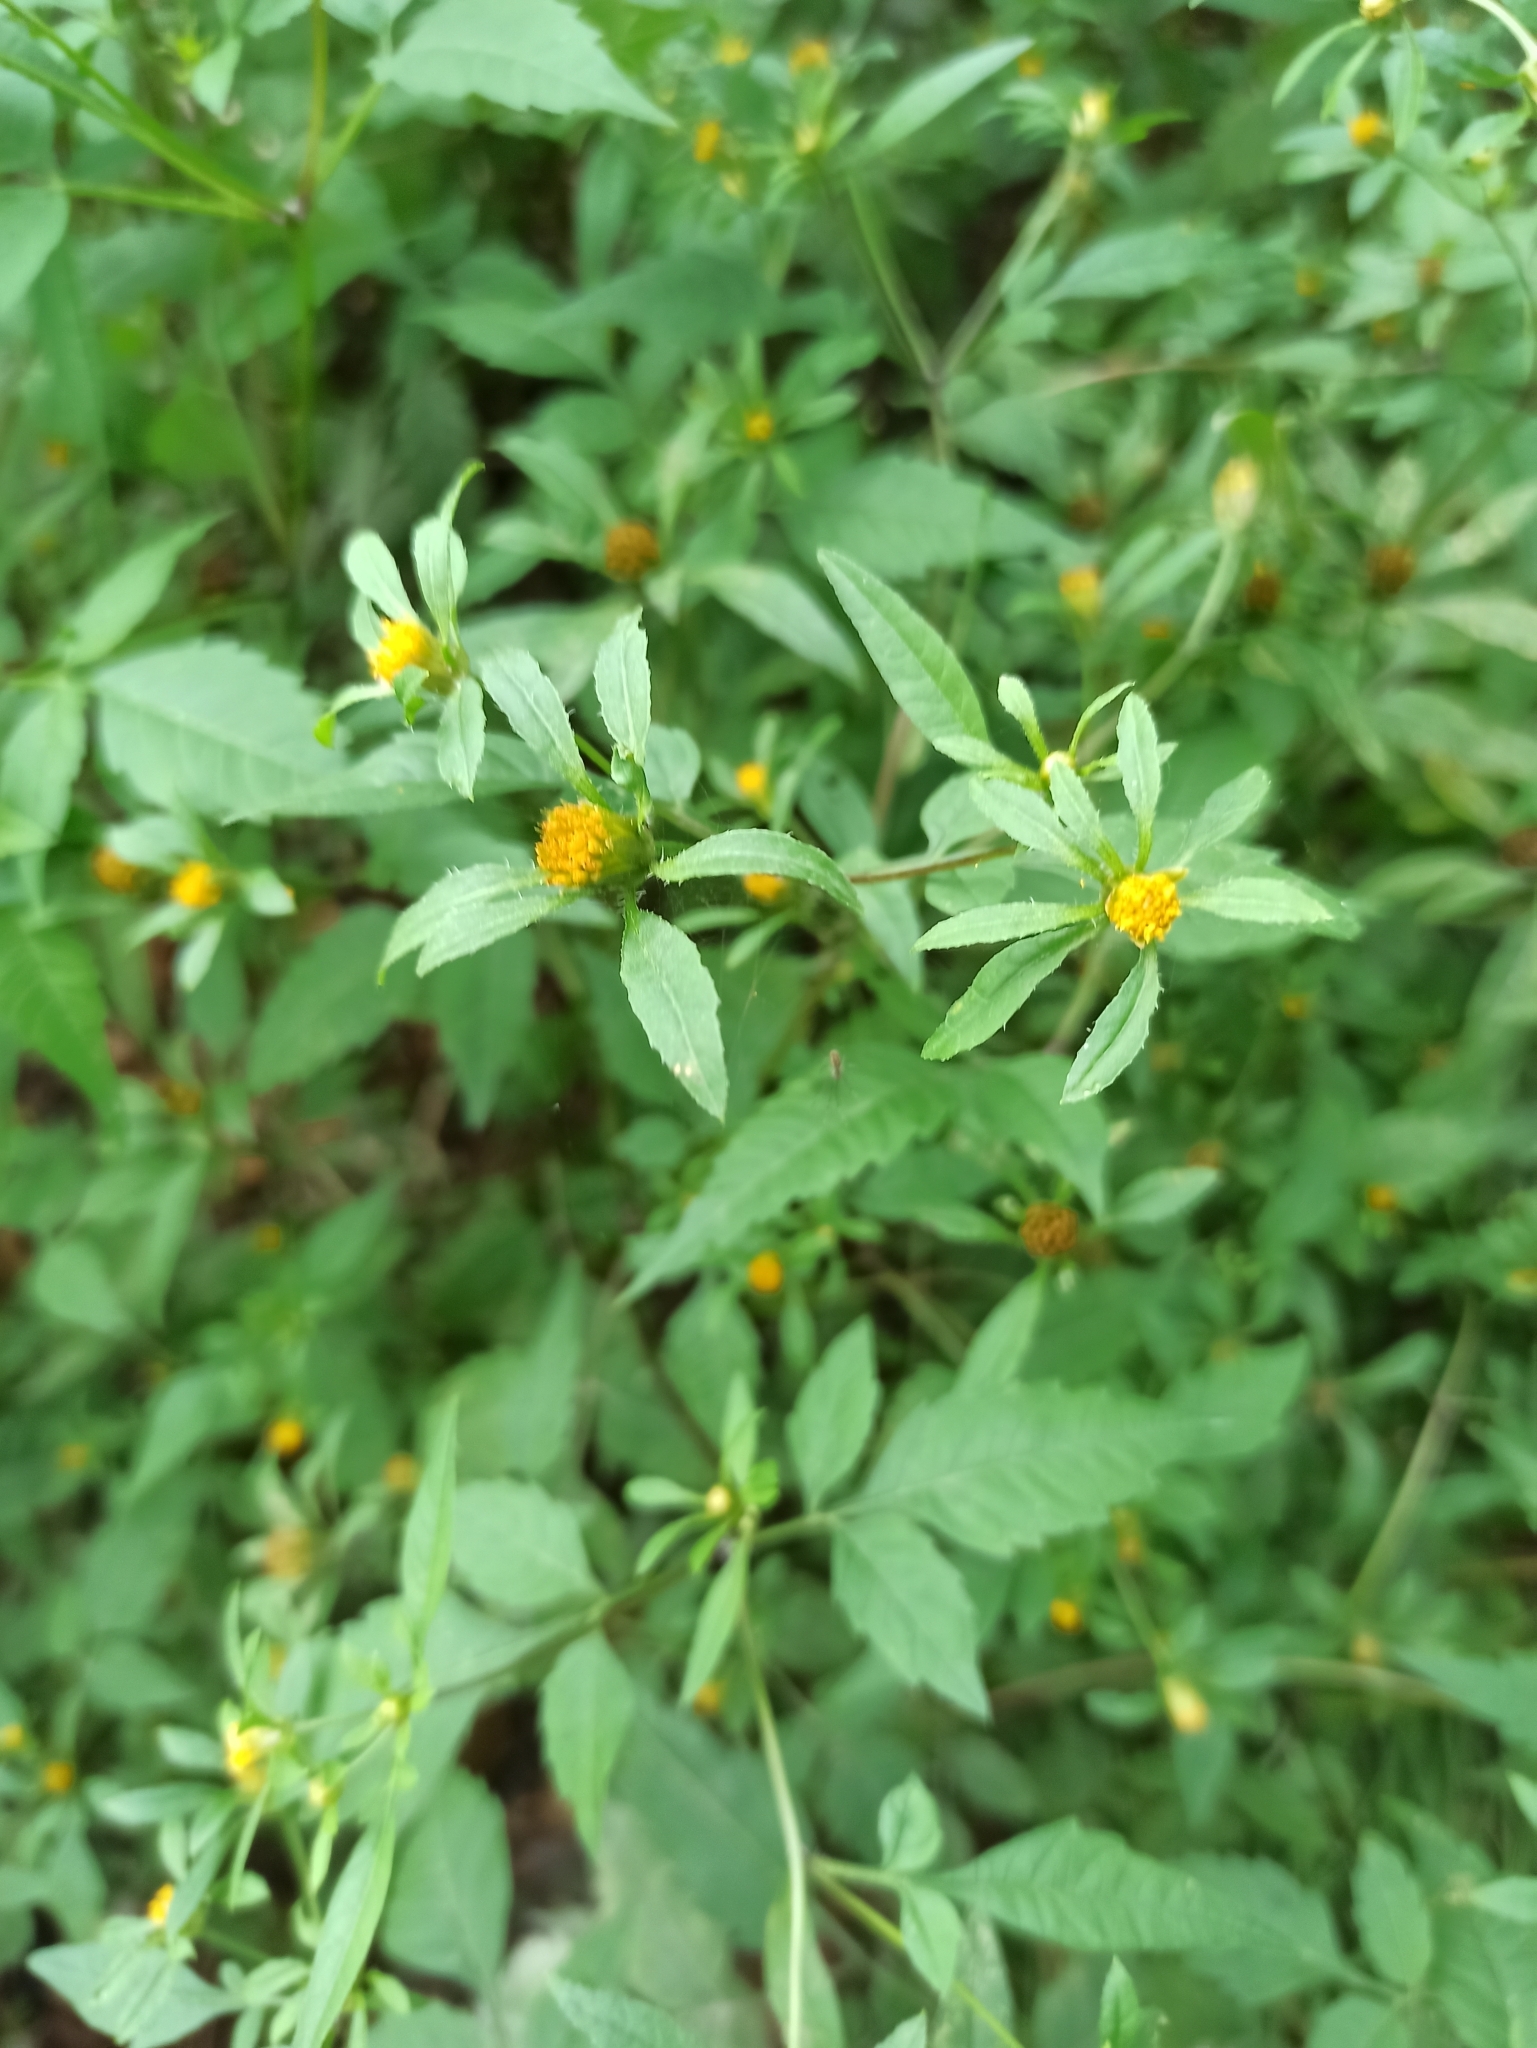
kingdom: Plantae
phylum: Tracheophyta
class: Magnoliopsida
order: Asterales
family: Asteraceae
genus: Bidens
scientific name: Bidens frondosa
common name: Beggarticks
